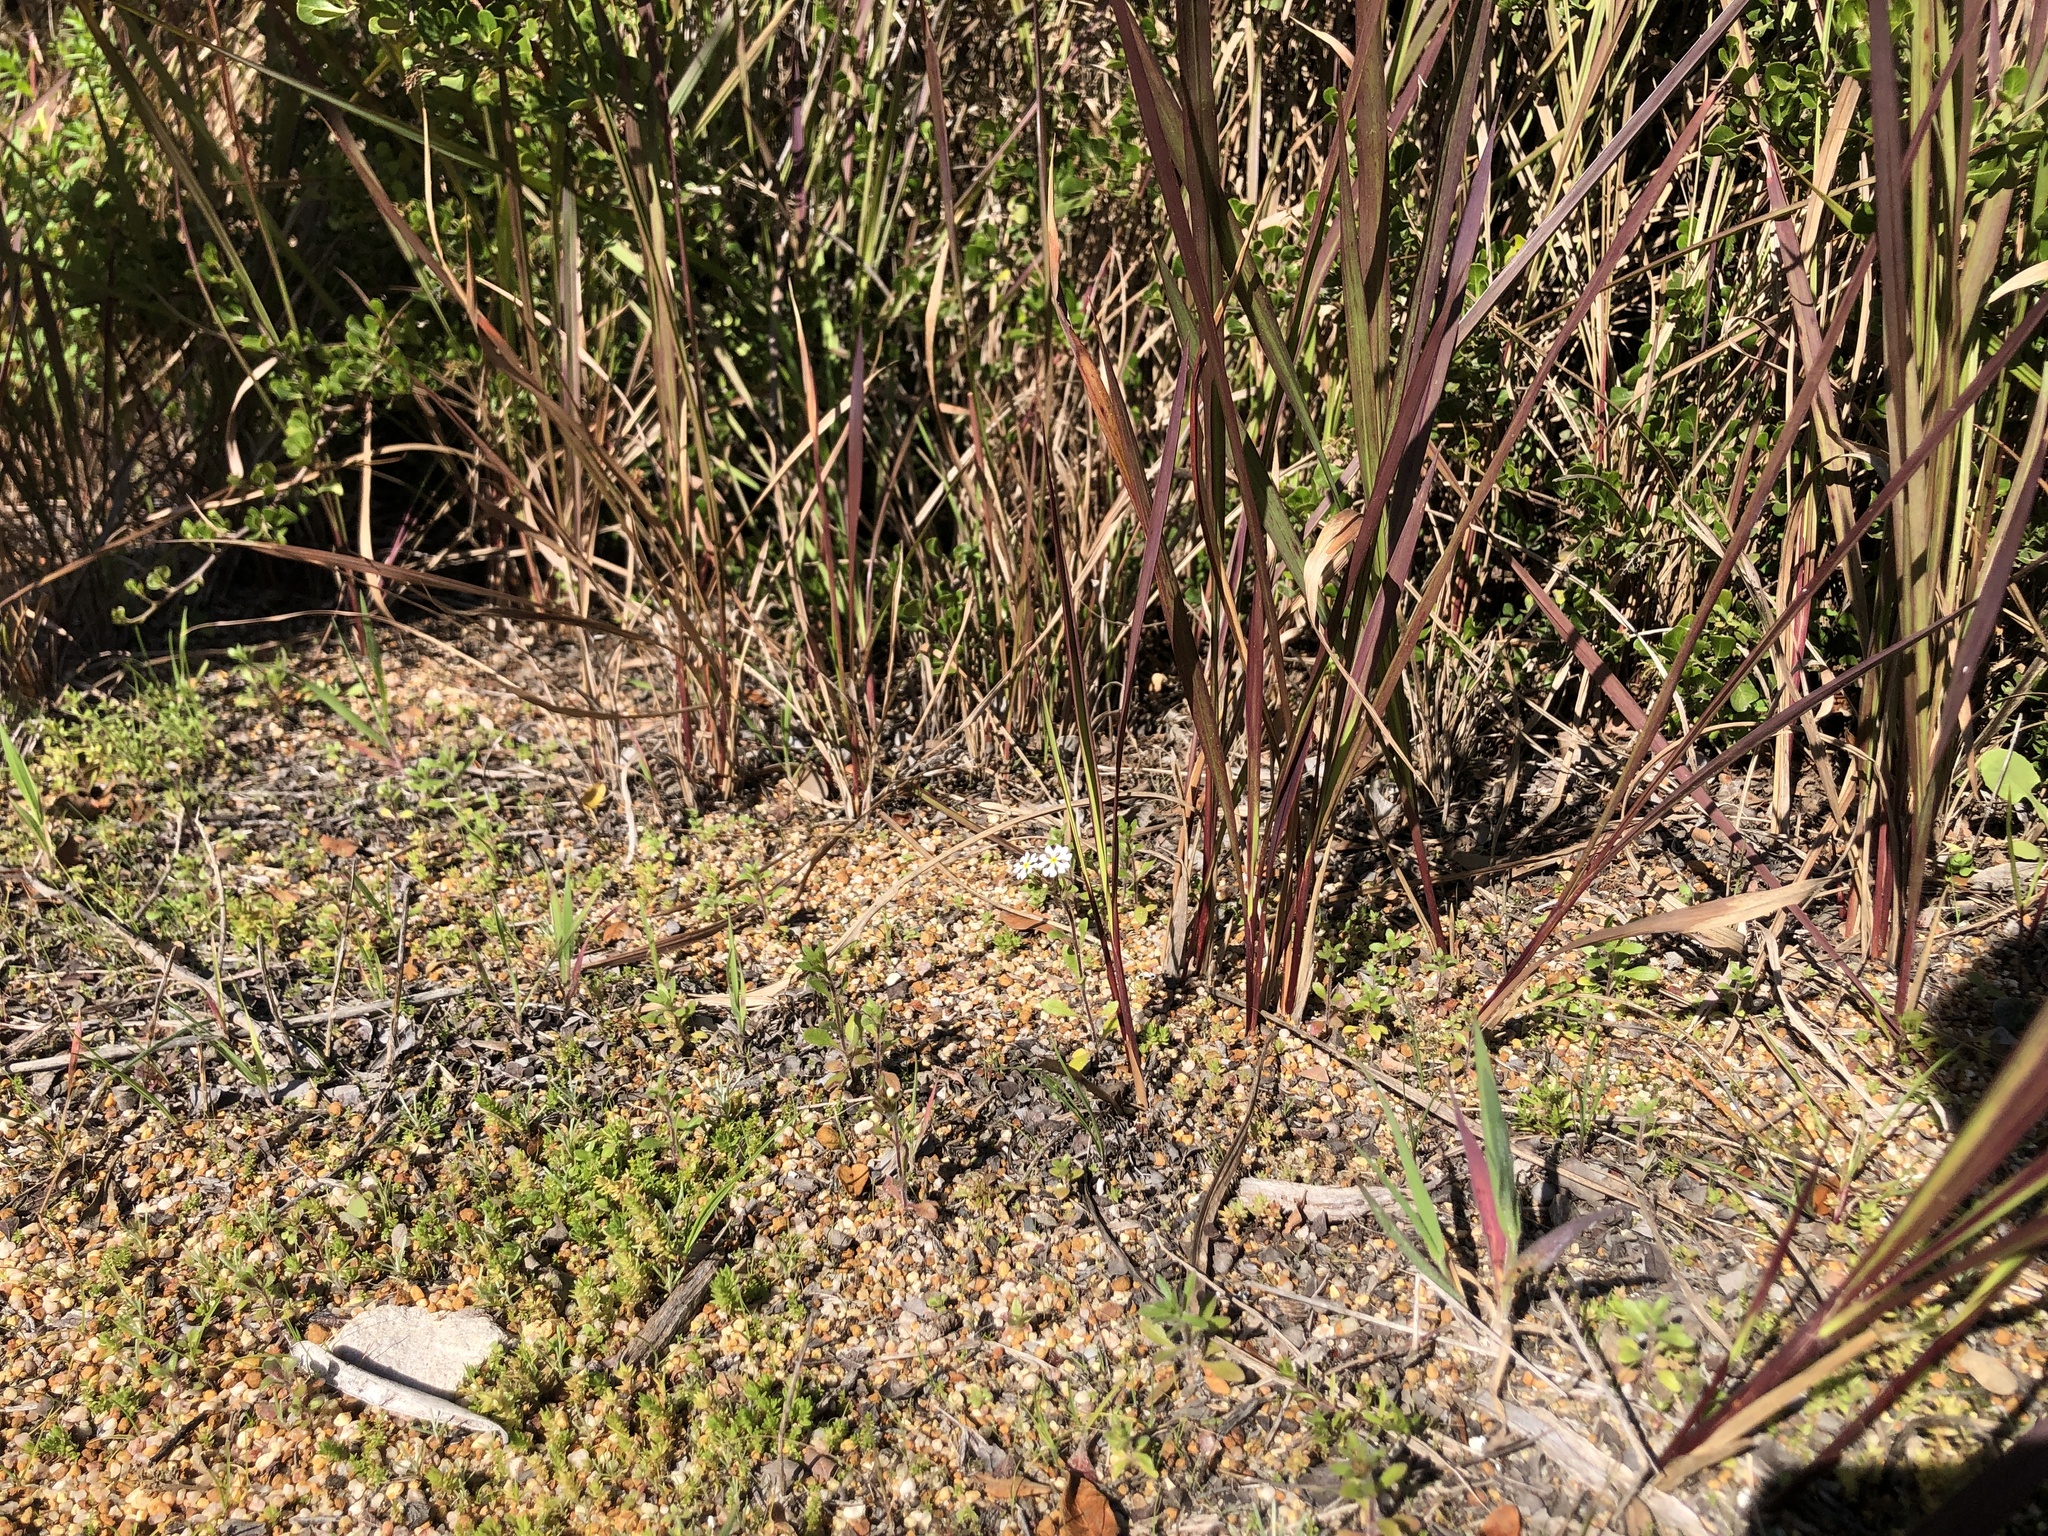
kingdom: Plantae
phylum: Tracheophyta
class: Magnoliopsida
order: Lamiales
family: Scrophulariaceae
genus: Zaluzianskya
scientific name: Zaluzianskya villosa
